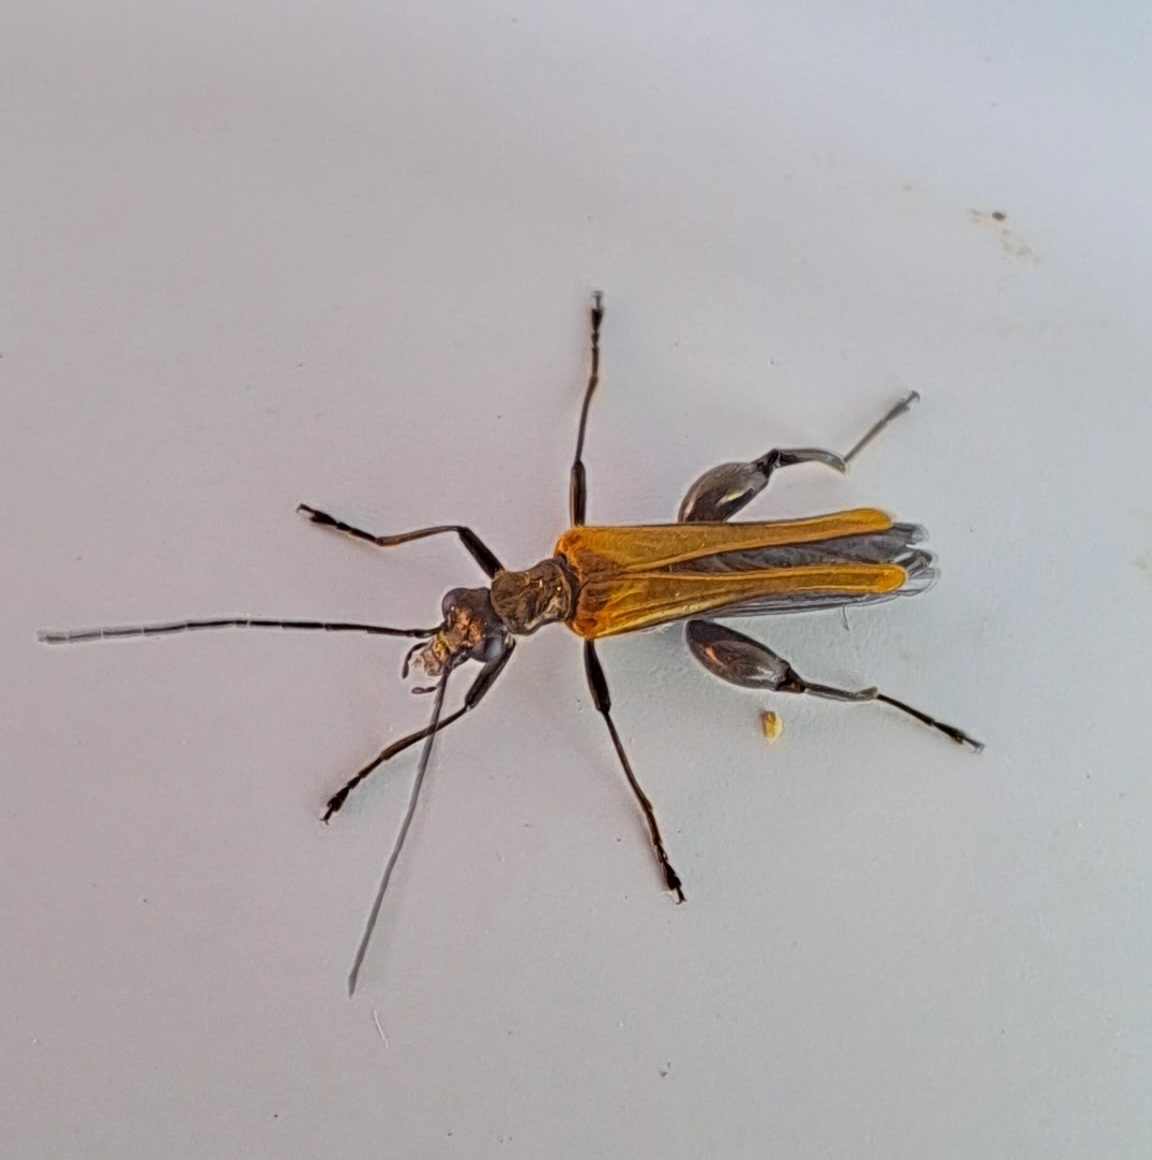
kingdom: Animalia
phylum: Arthropoda
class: Insecta
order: Coleoptera
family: Oedemeridae
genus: Oedemera
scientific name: Oedemera femorata
